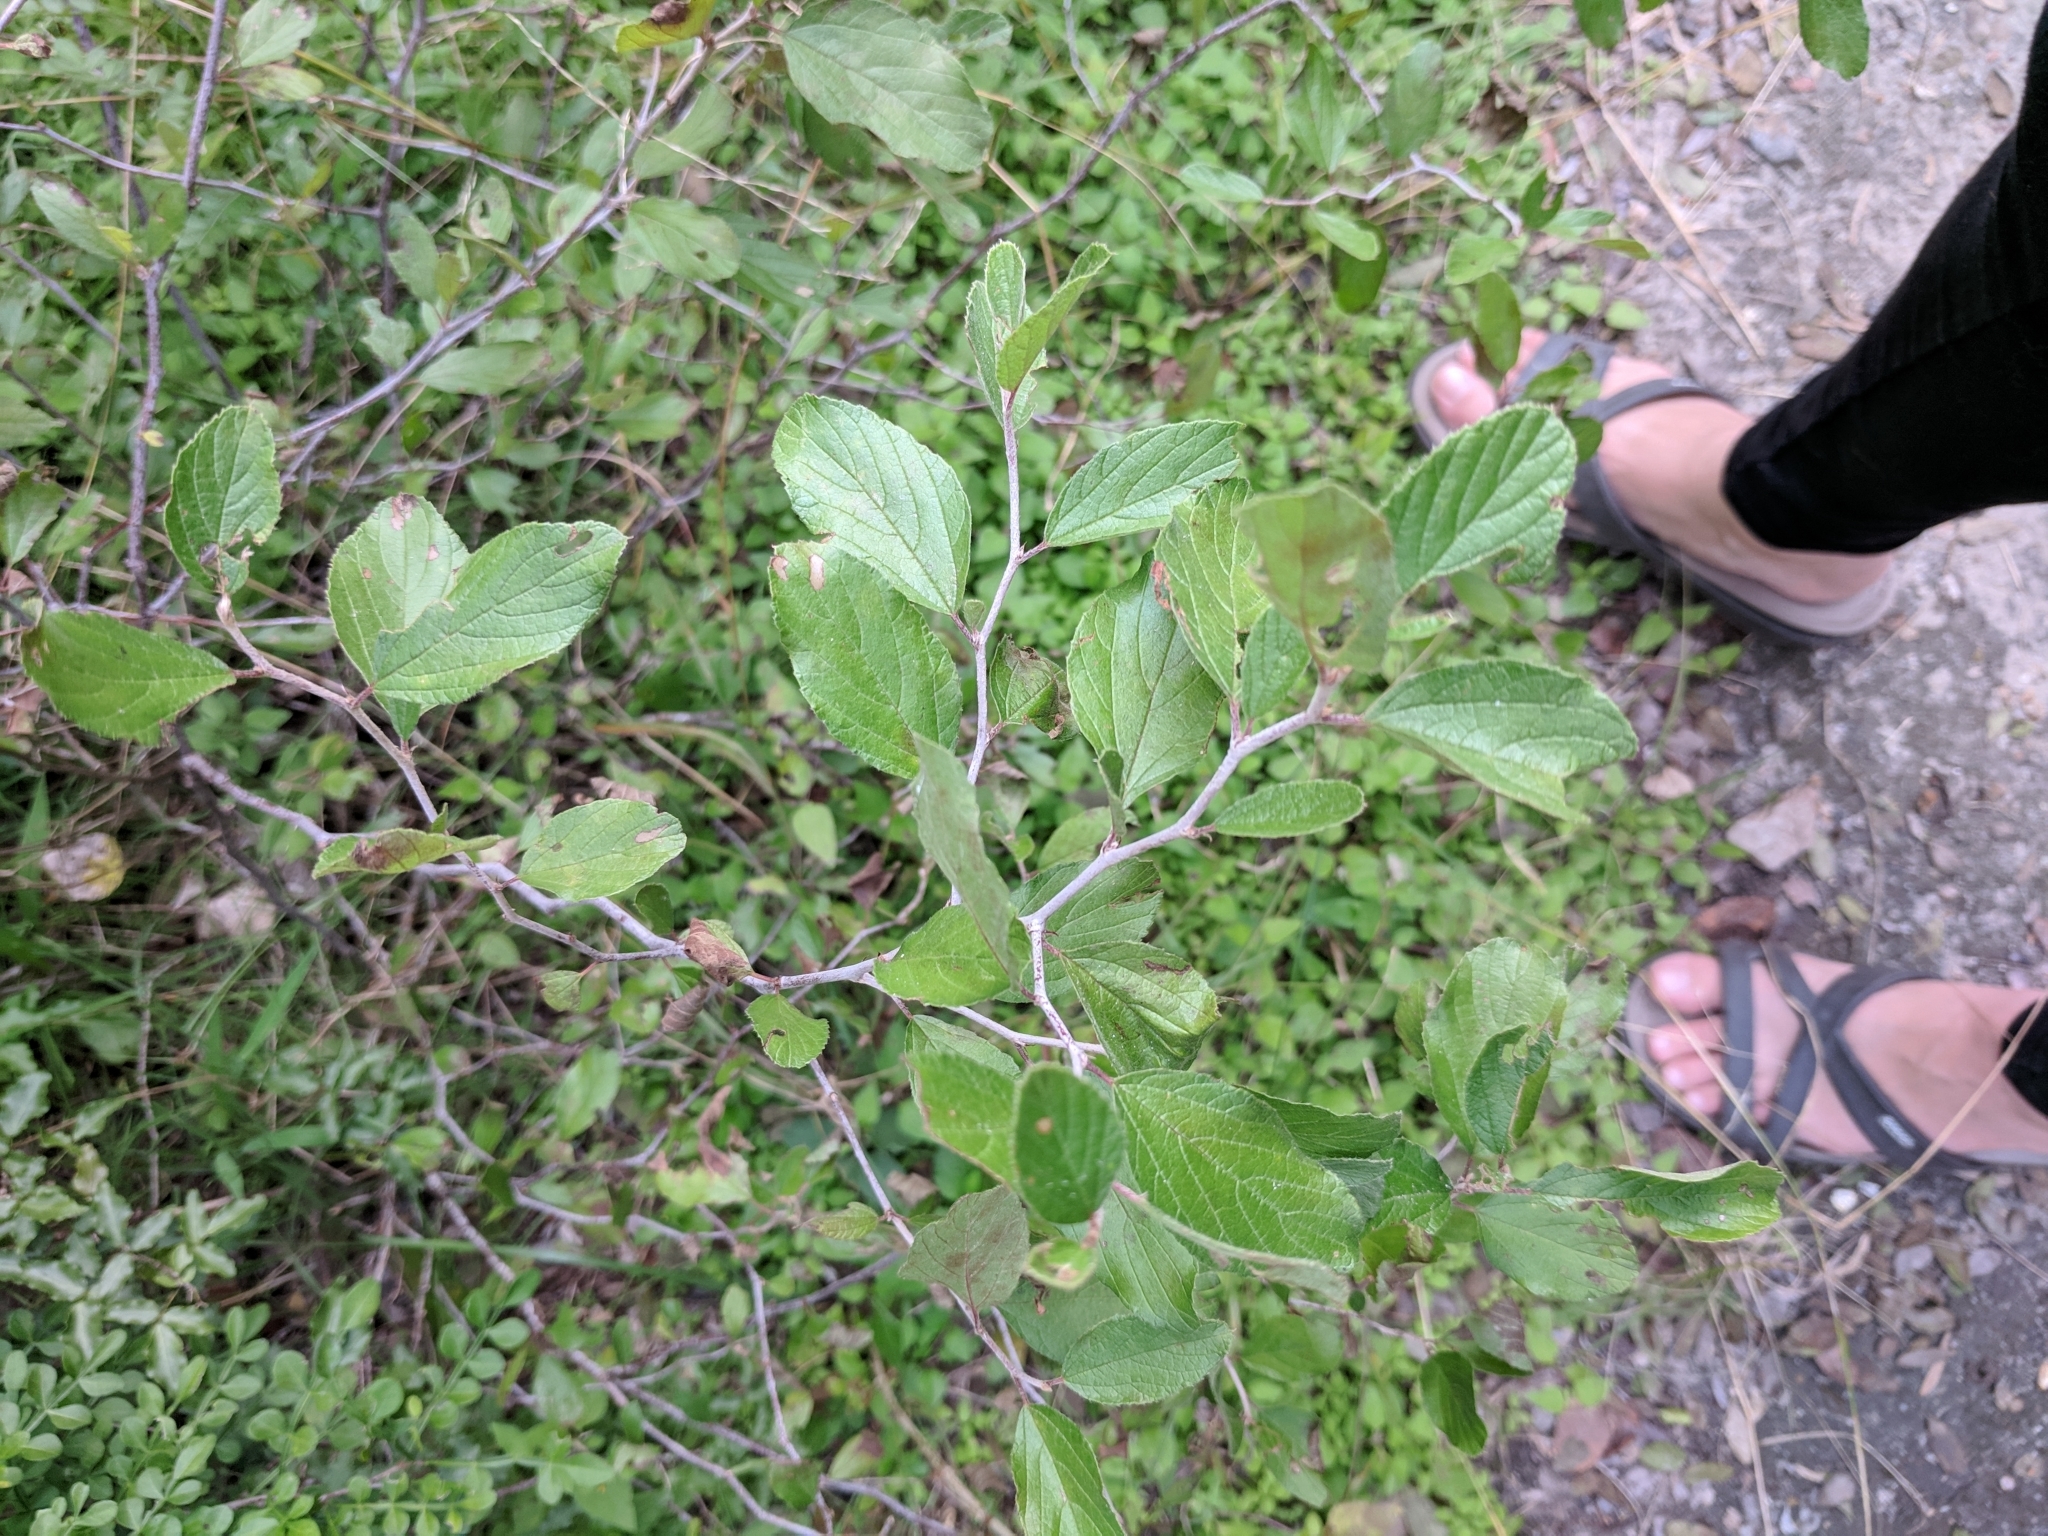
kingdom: Plantae
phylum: Tracheophyta
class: Magnoliopsida
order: Rosales
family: Rhamnaceae
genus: Colubrina
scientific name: Colubrina texensis
